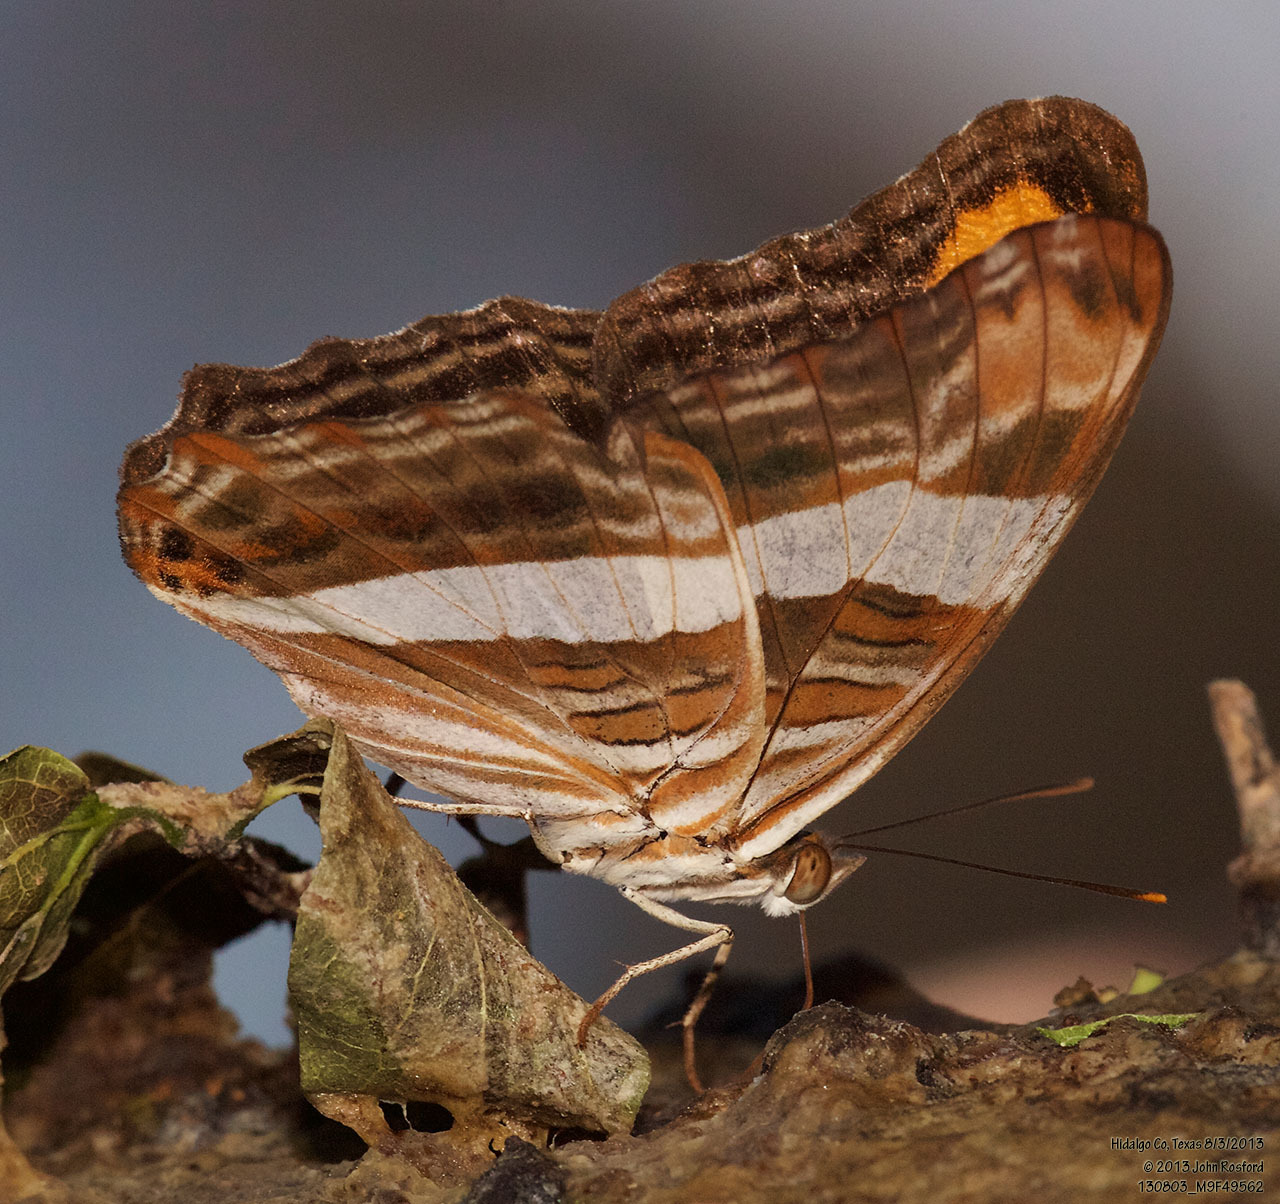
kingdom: Animalia
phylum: Arthropoda
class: Insecta
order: Lepidoptera
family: Nymphalidae
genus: Limenitis
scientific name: Limenitis fessonia
